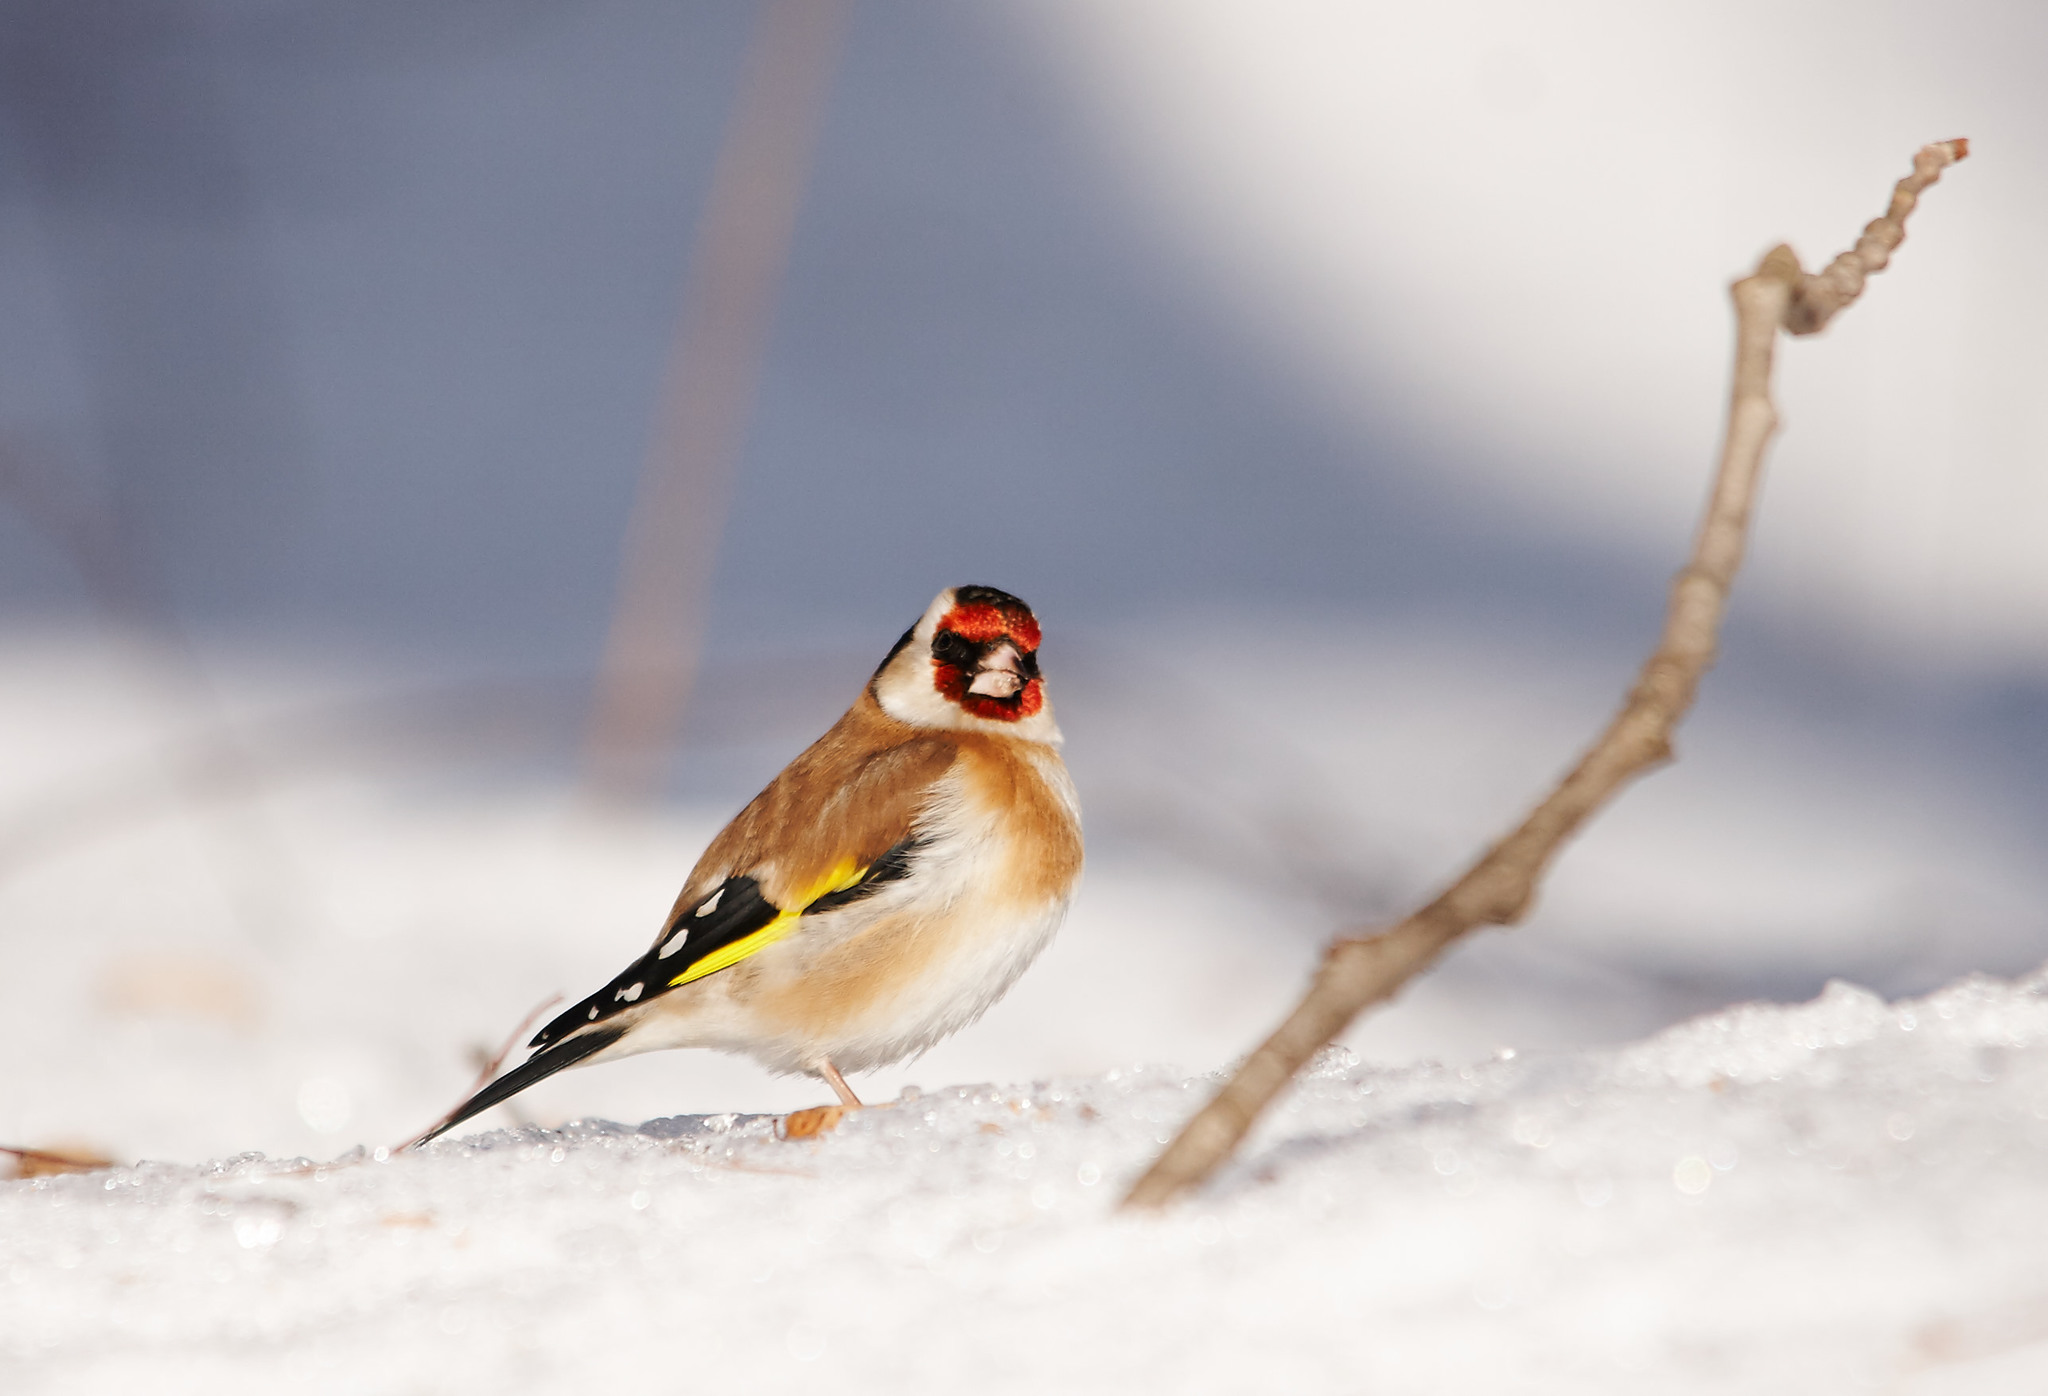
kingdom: Animalia
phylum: Chordata
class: Aves
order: Passeriformes
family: Fringillidae
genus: Carduelis
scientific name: Carduelis carduelis
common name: European goldfinch
